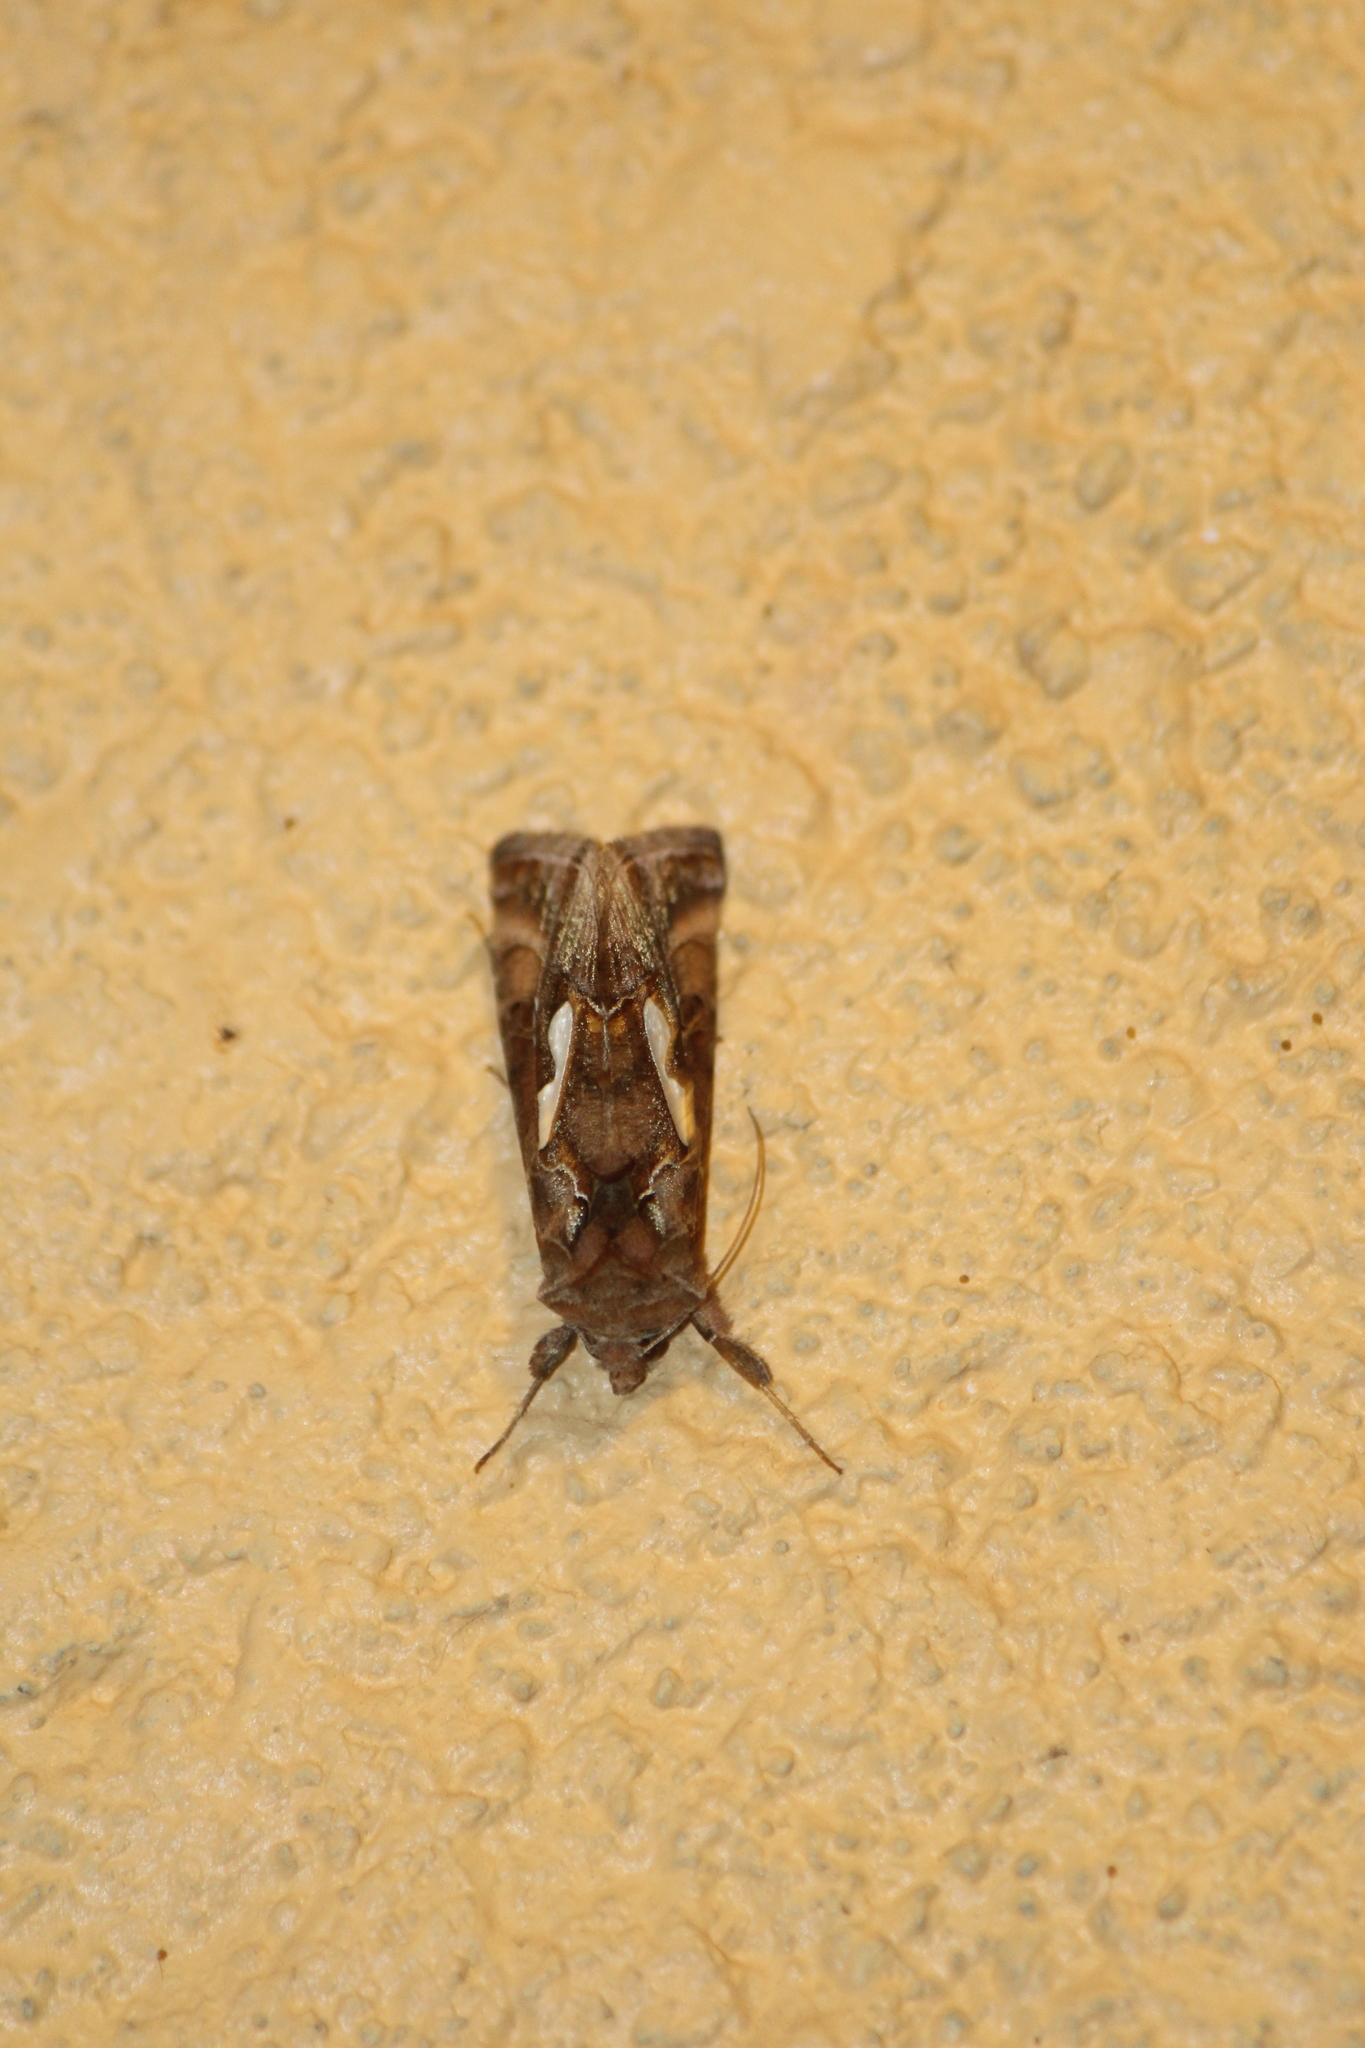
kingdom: Animalia
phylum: Arthropoda
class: Insecta
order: Lepidoptera
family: Noctuidae
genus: Megalographa
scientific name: Megalographa biloba
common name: Cutworm
